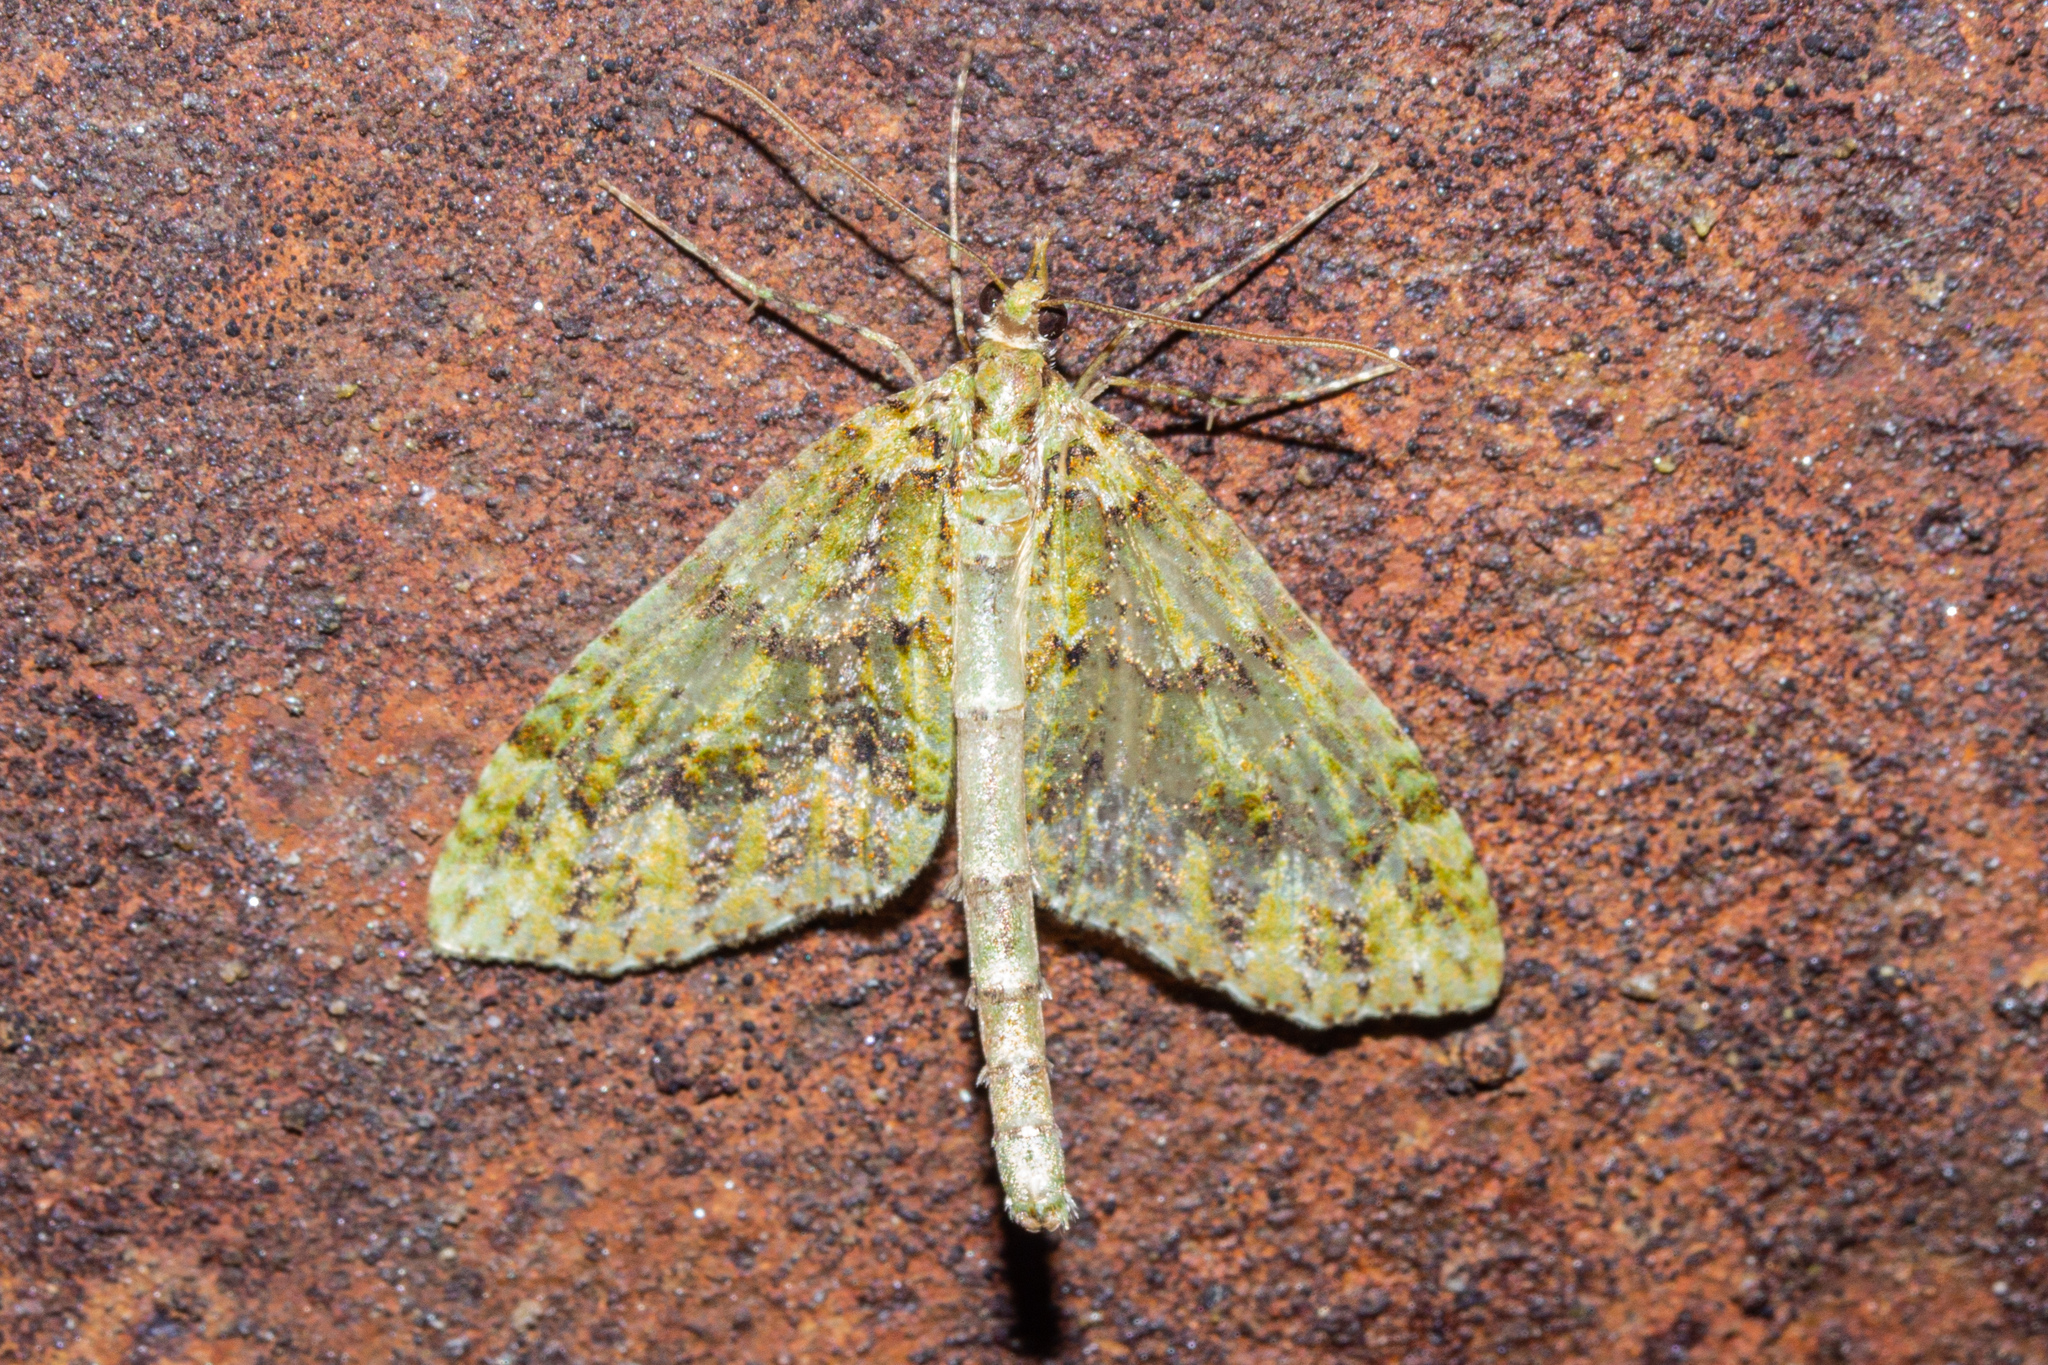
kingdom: Animalia
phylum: Arthropoda
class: Insecta
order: Lepidoptera
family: Geometridae
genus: Tatosoma
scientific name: Tatosoma tipulata
